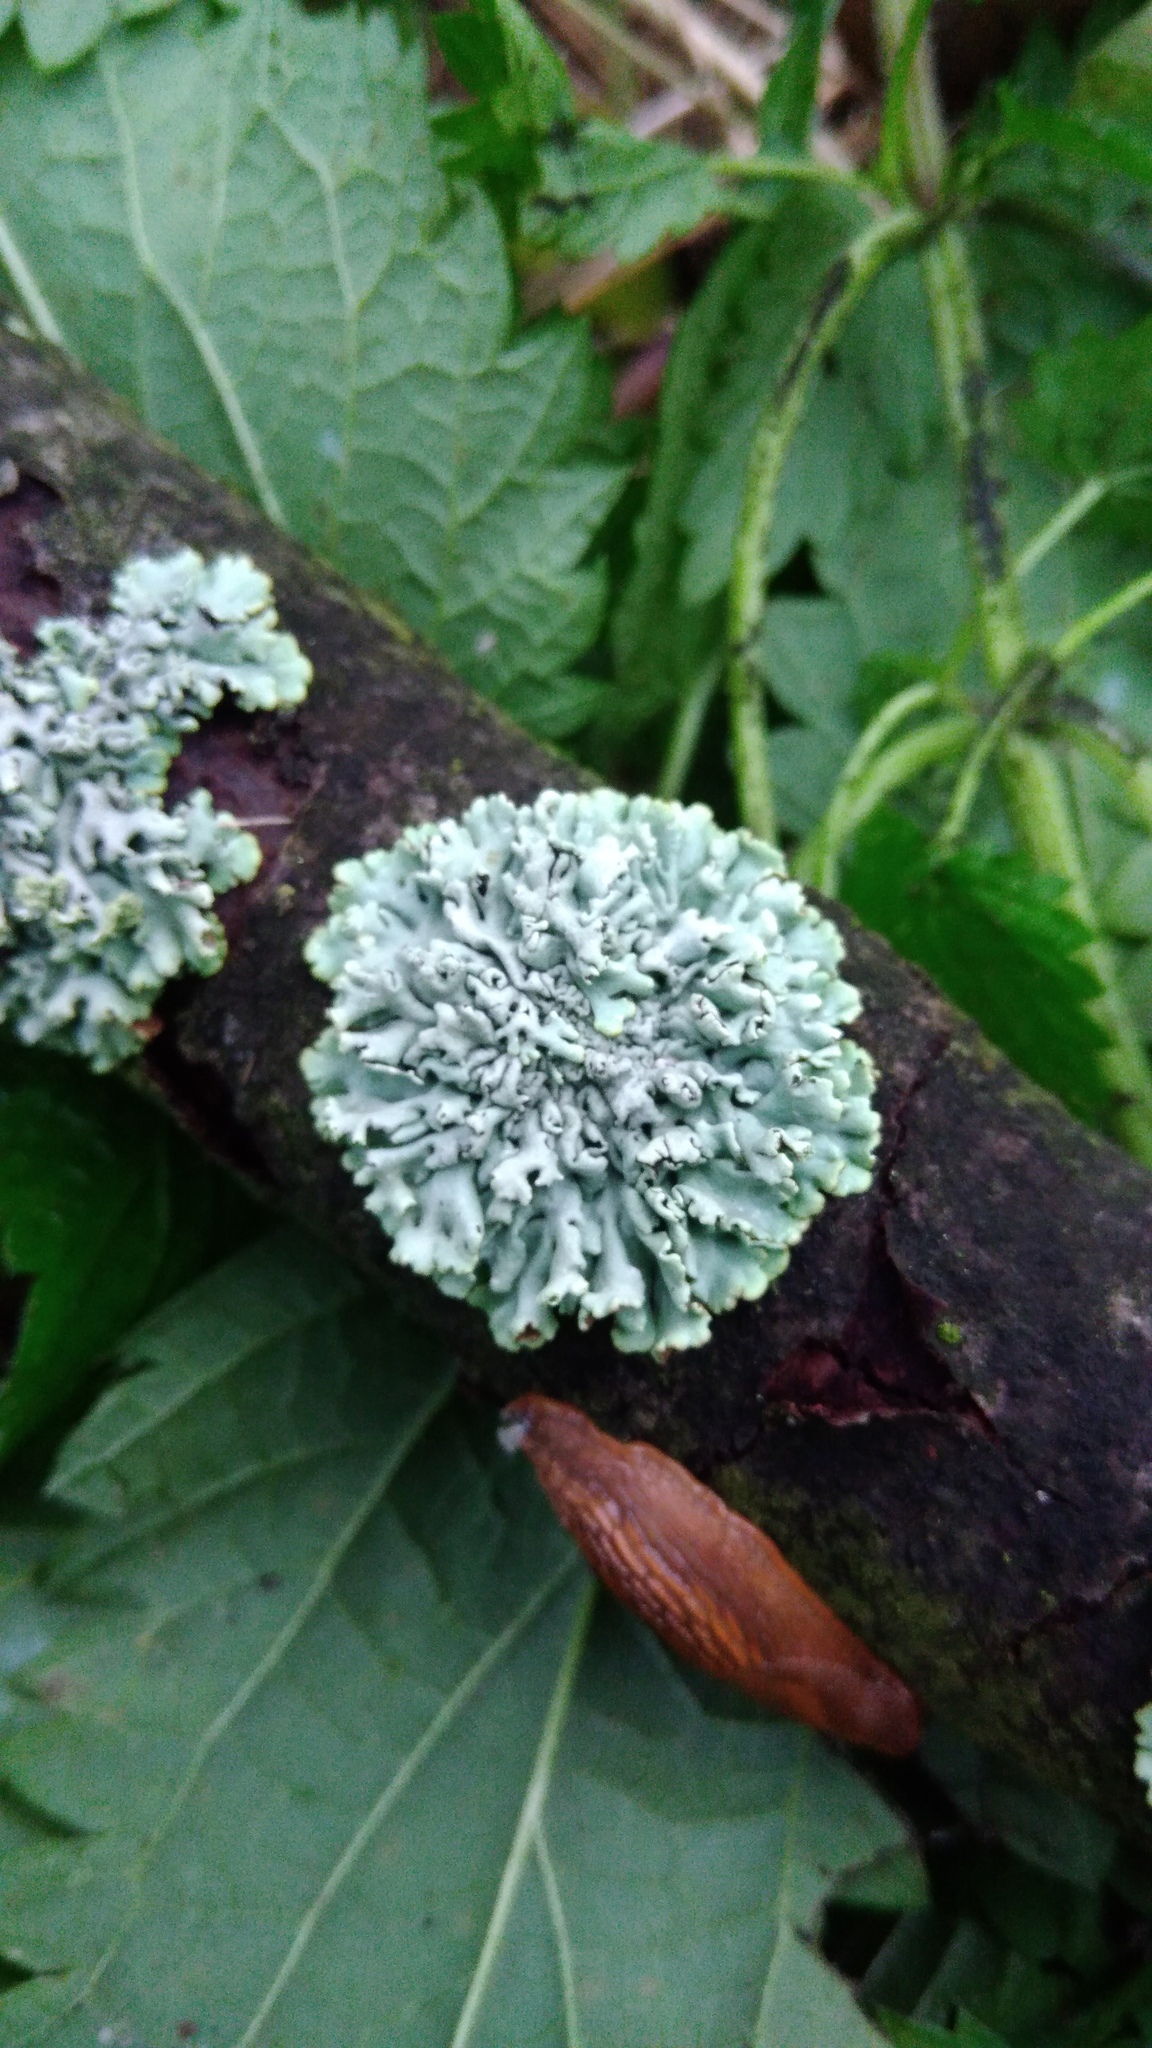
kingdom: Fungi
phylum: Ascomycota
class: Lecanoromycetes
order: Lecanorales
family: Parmeliaceae
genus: Hypogymnia
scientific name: Hypogymnia physodes
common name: Dark crottle
